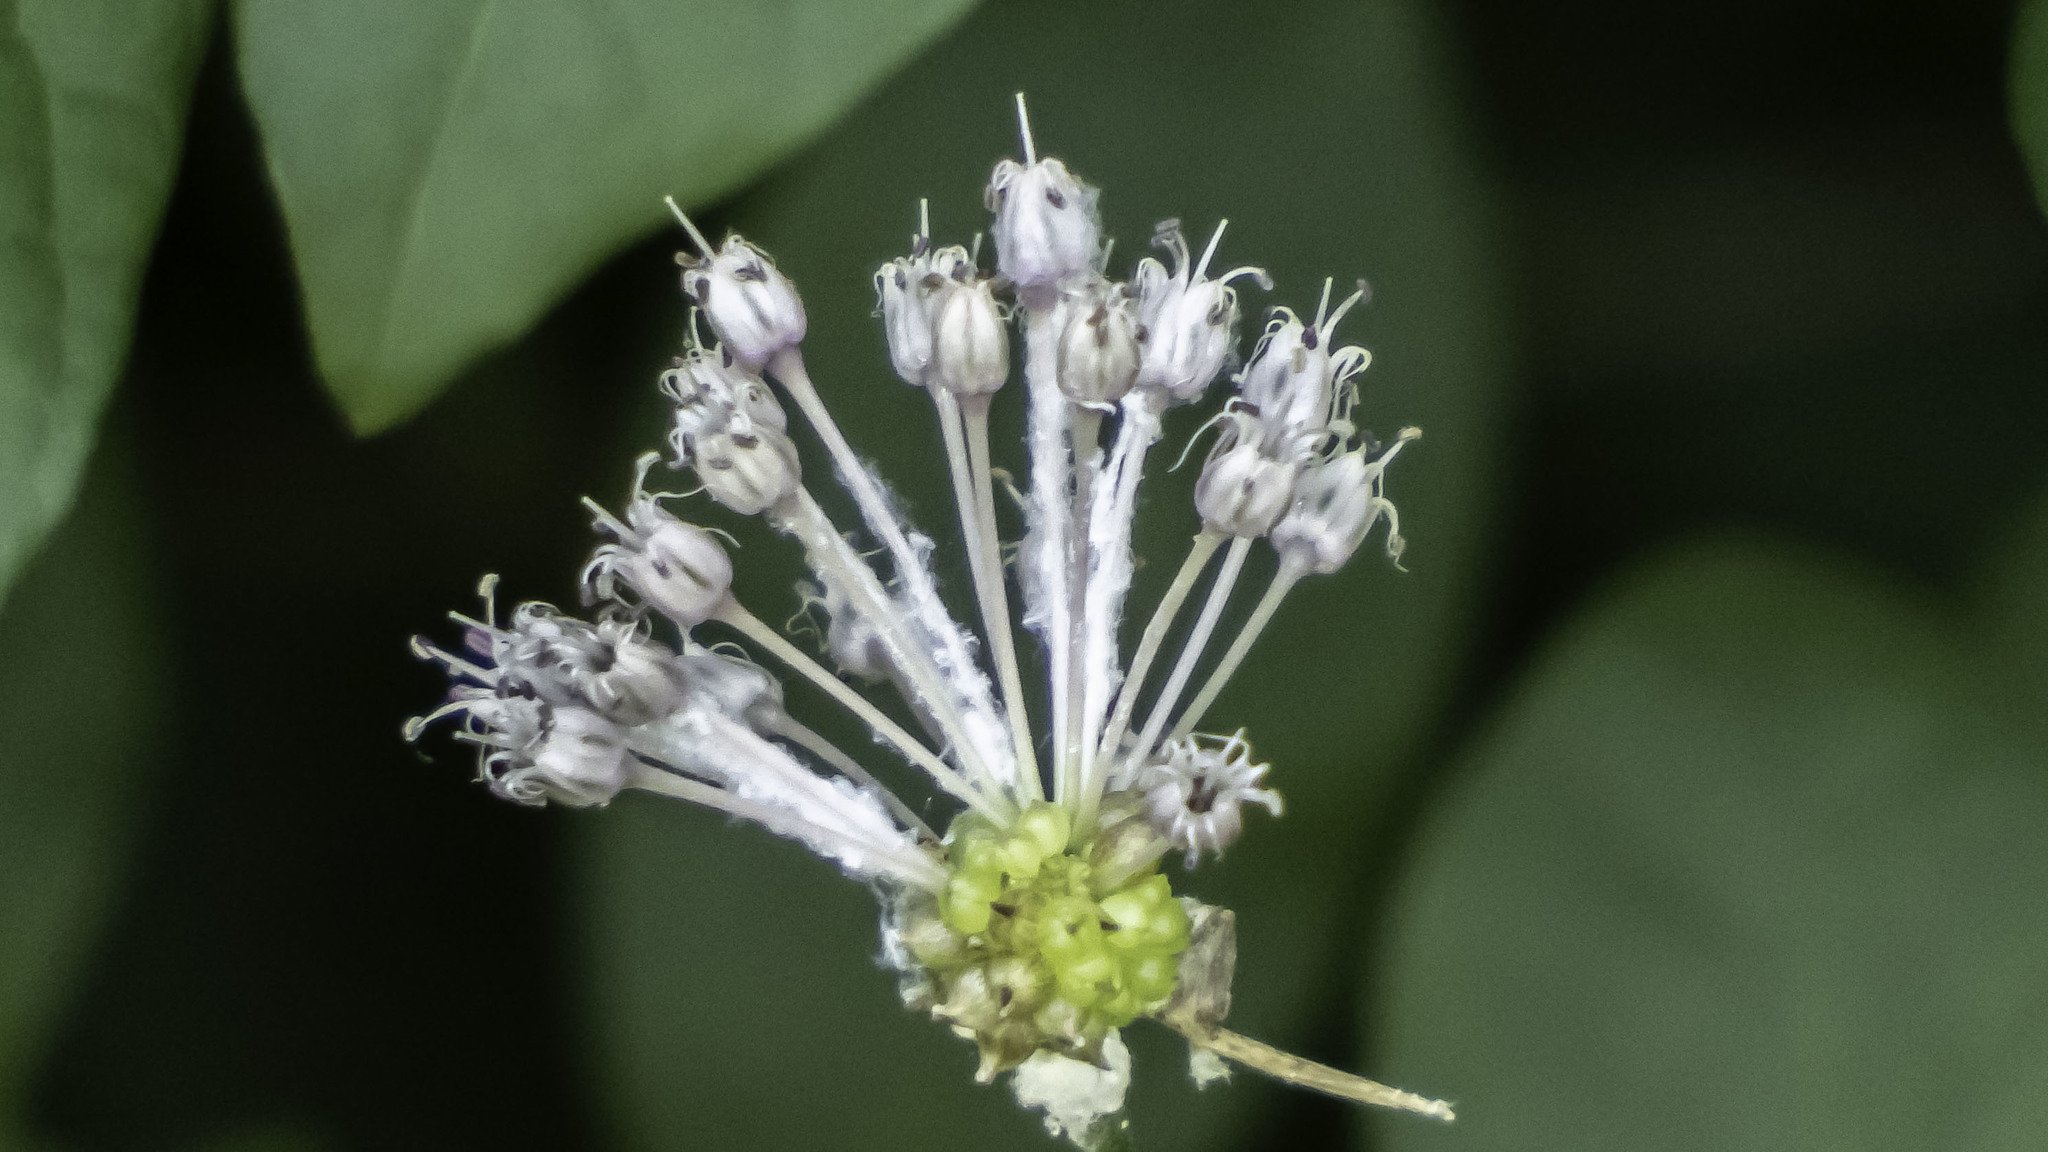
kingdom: Plantae
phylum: Tracheophyta
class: Liliopsida
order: Asparagales
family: Amaryllidaceae
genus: Allium
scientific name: Allium vineale
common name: Crow garlic
